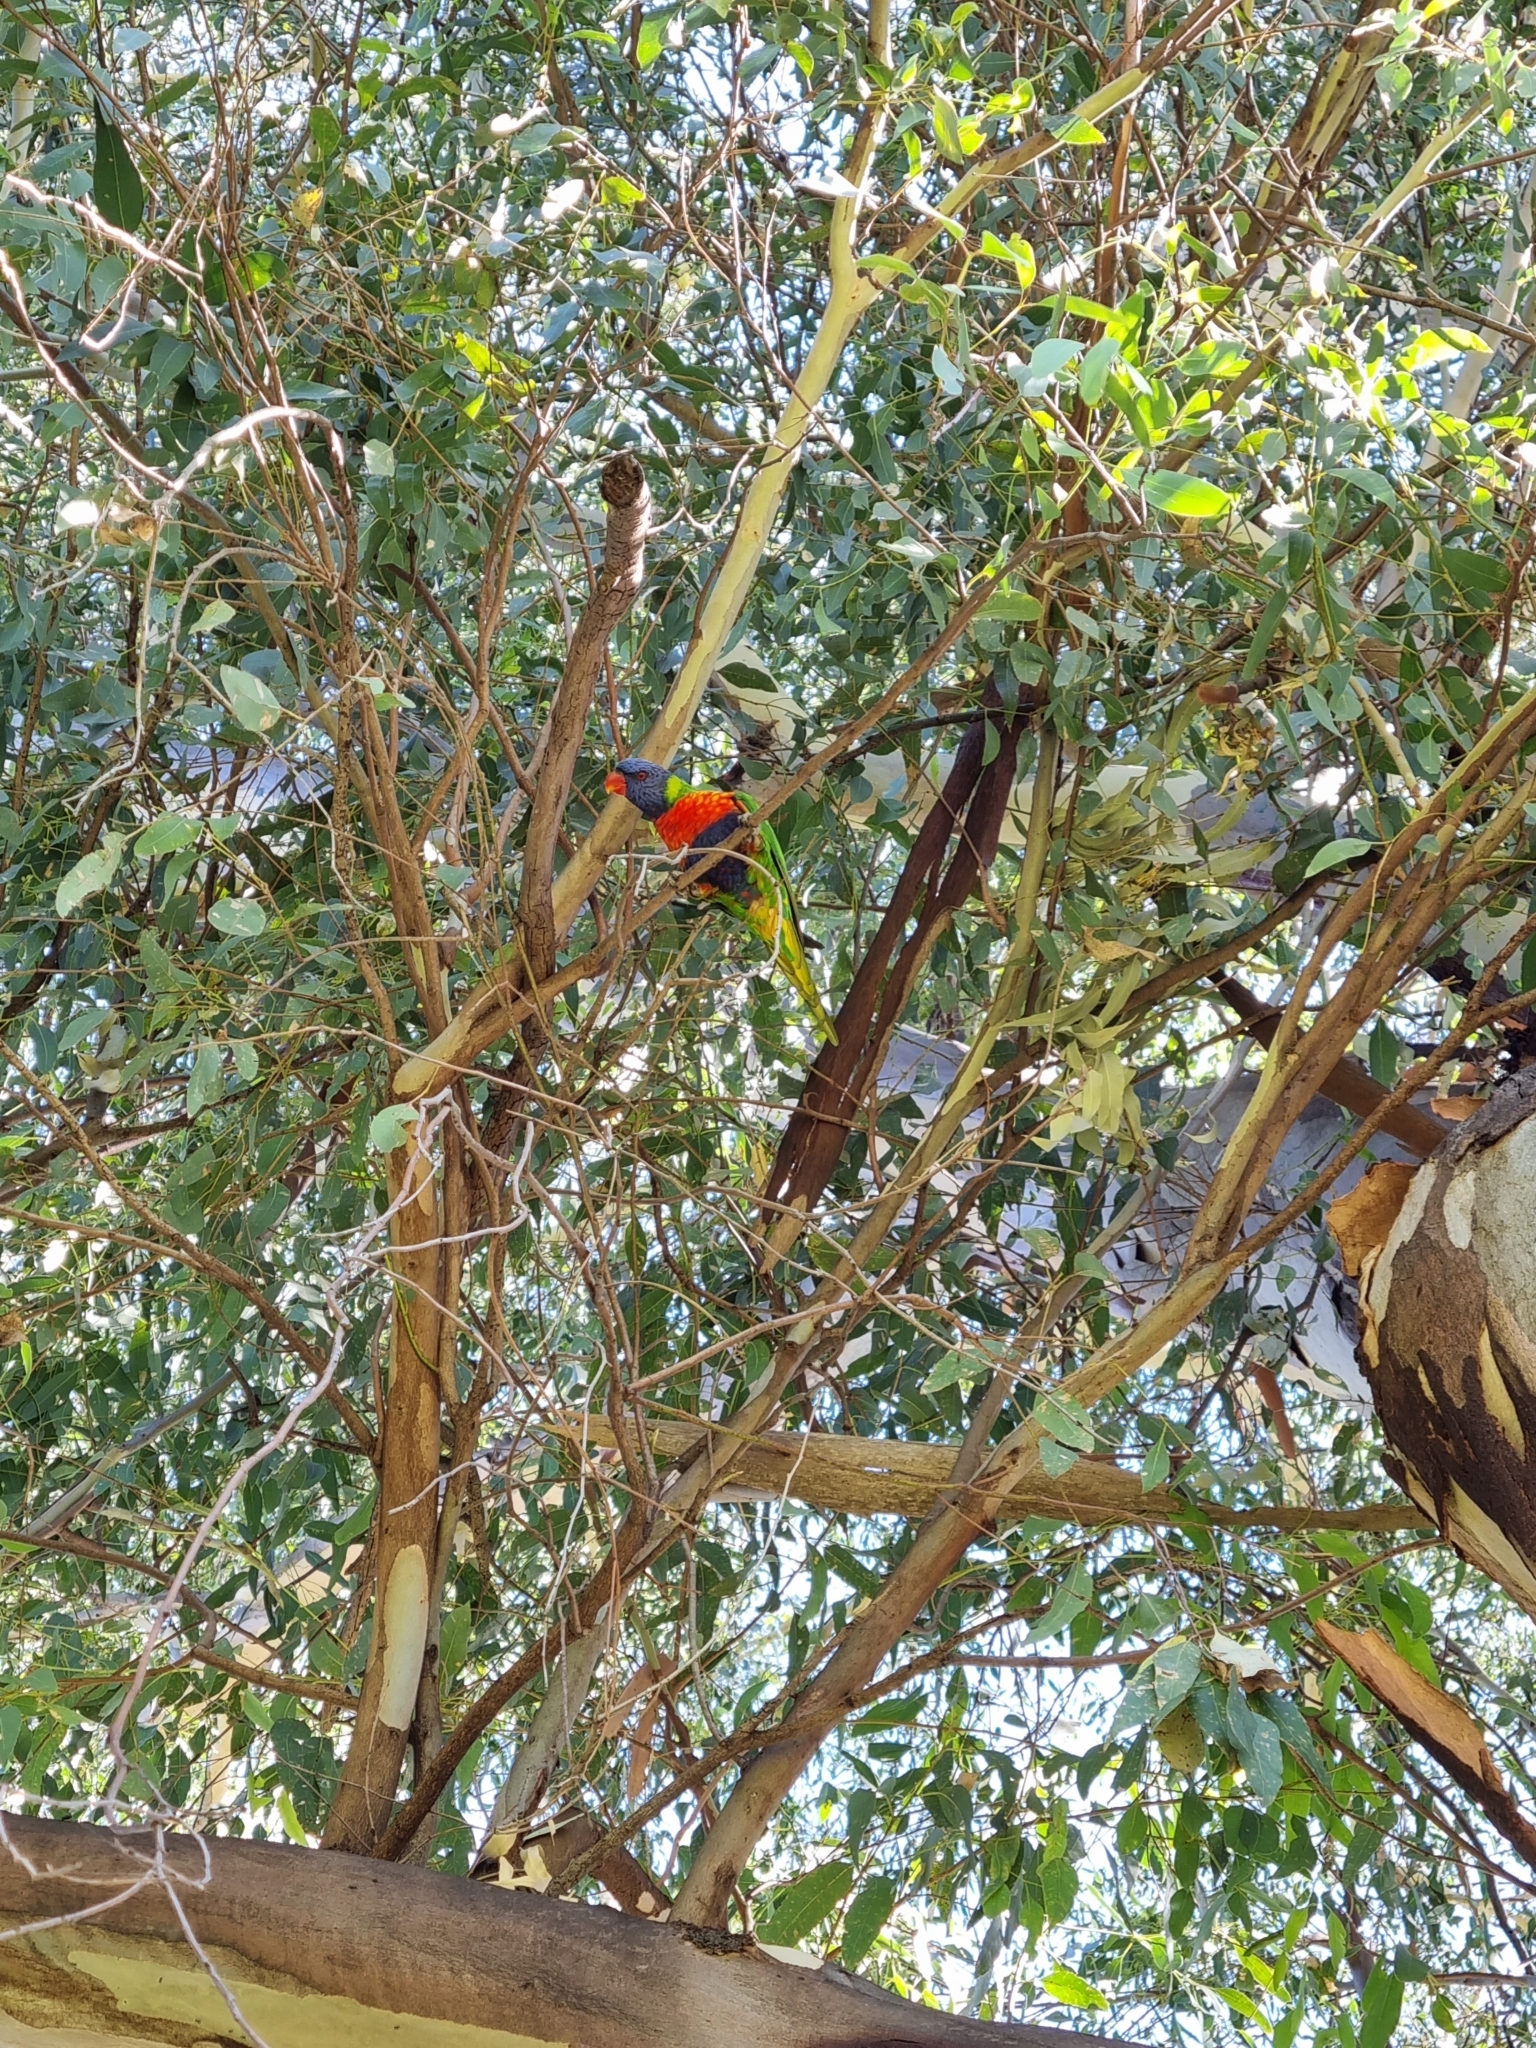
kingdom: Animalia
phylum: Chordata
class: Aves
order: Psittaciformes
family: Psittacidae
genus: Trichoglossus
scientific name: Trichoglossus haematodus
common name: Coconut lorikeet
